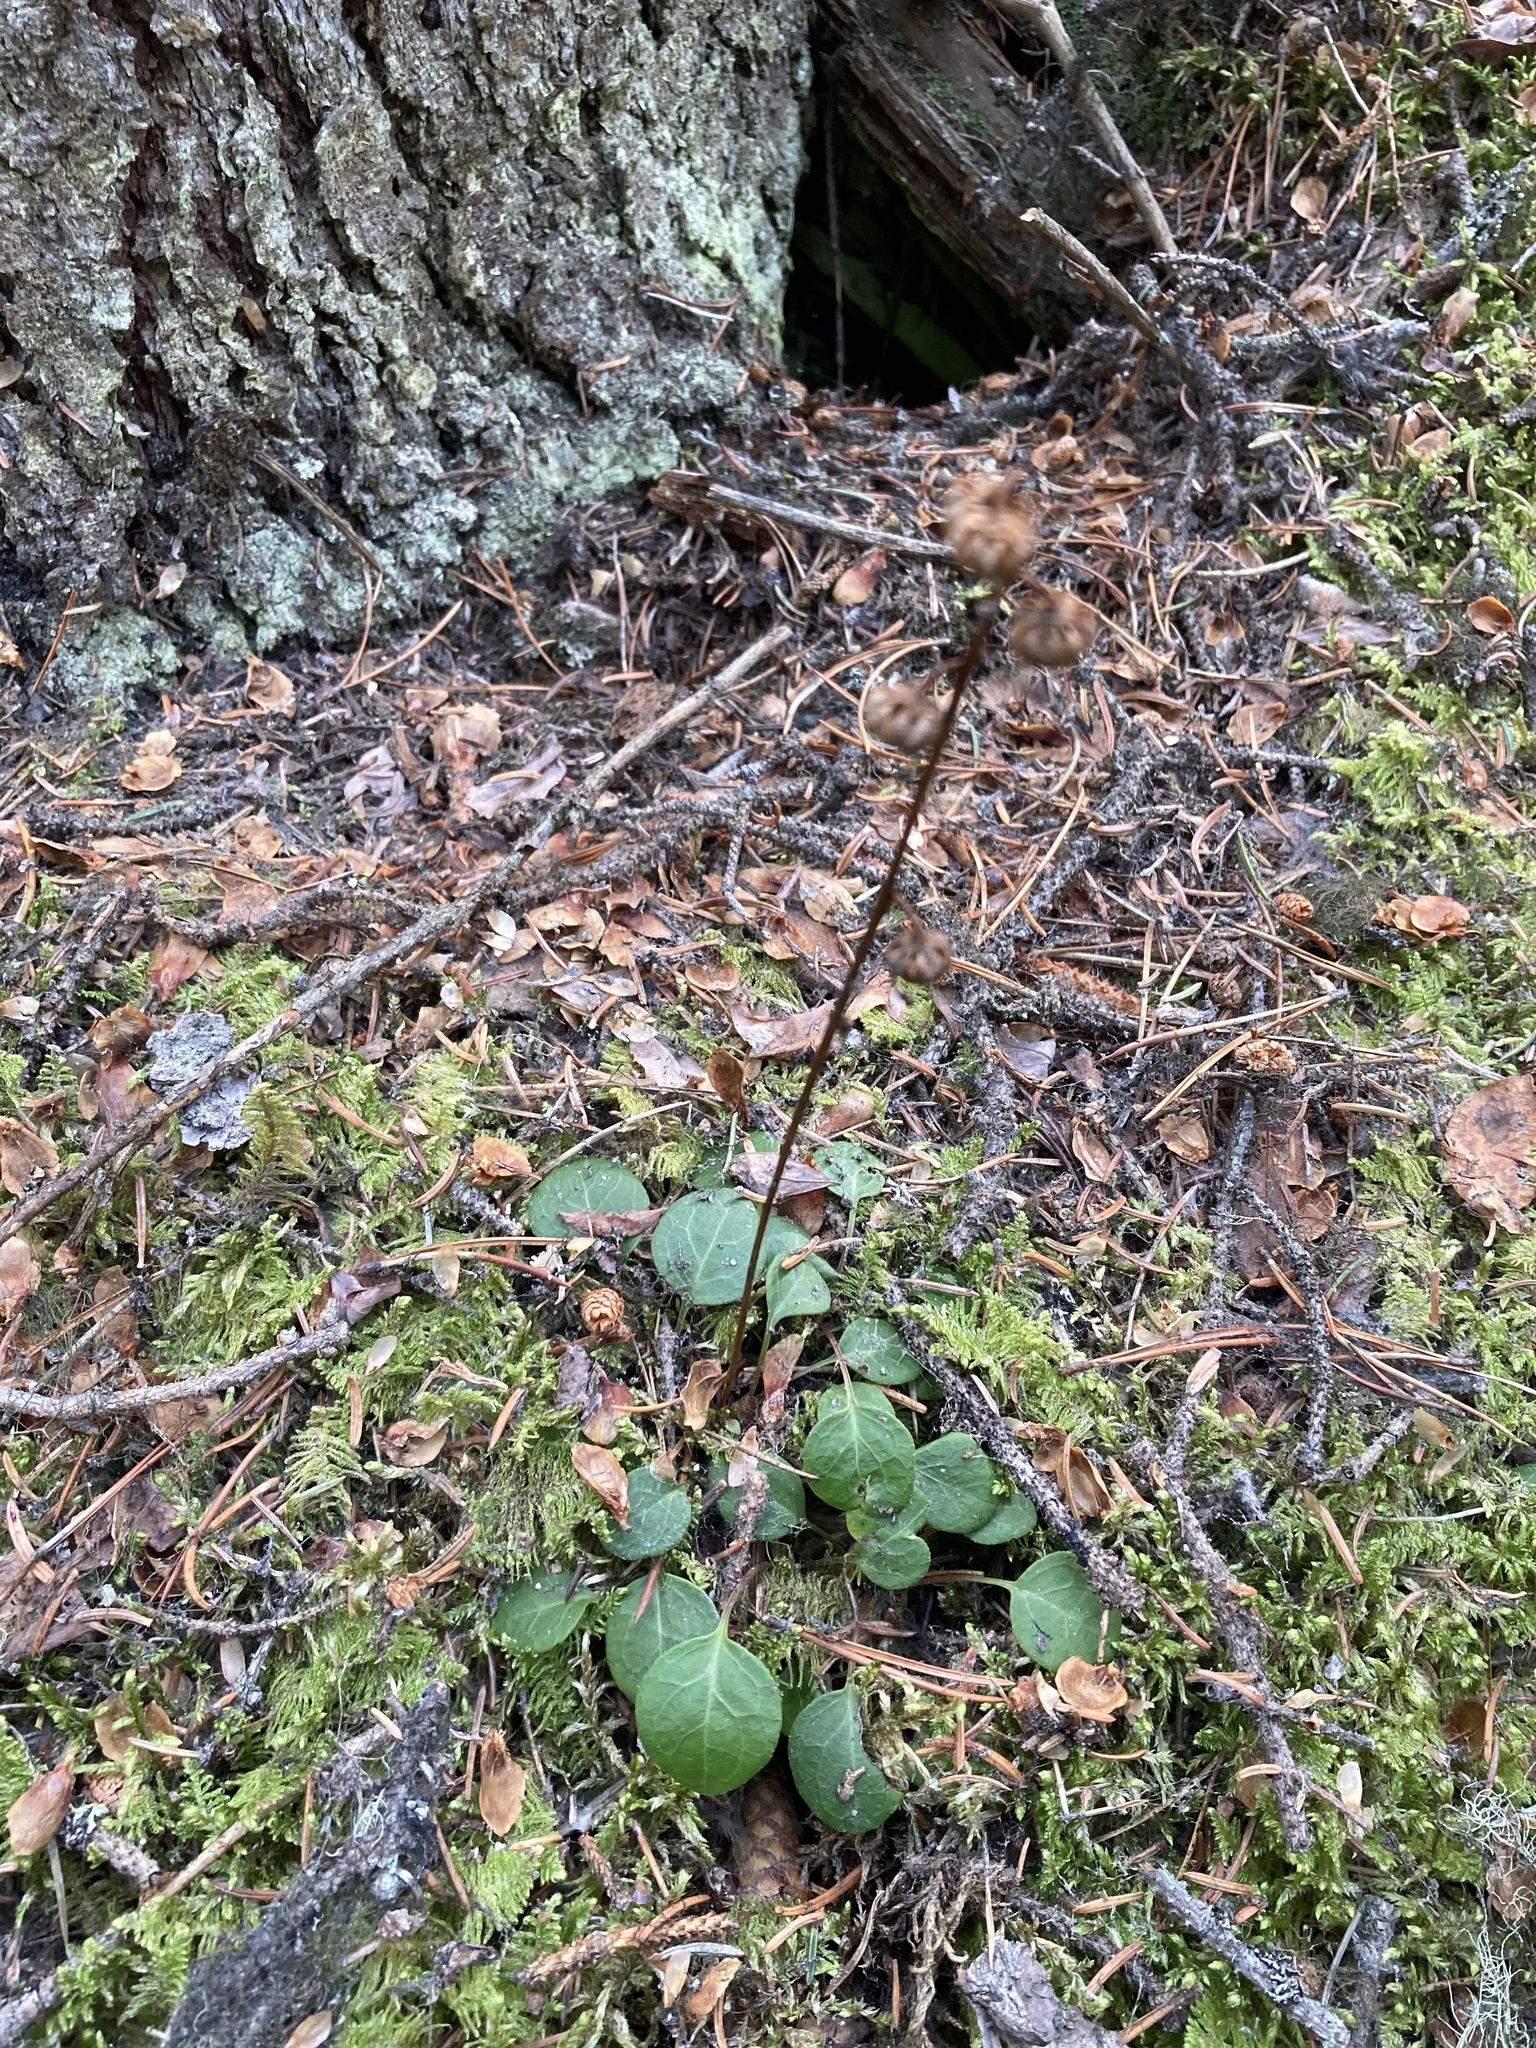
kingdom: Plantae
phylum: Tracheophyta
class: Magnoliopsida
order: Ericales
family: Ericaceae
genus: Pyrola
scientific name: Pyrola chlorantha
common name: Green wintergreen
